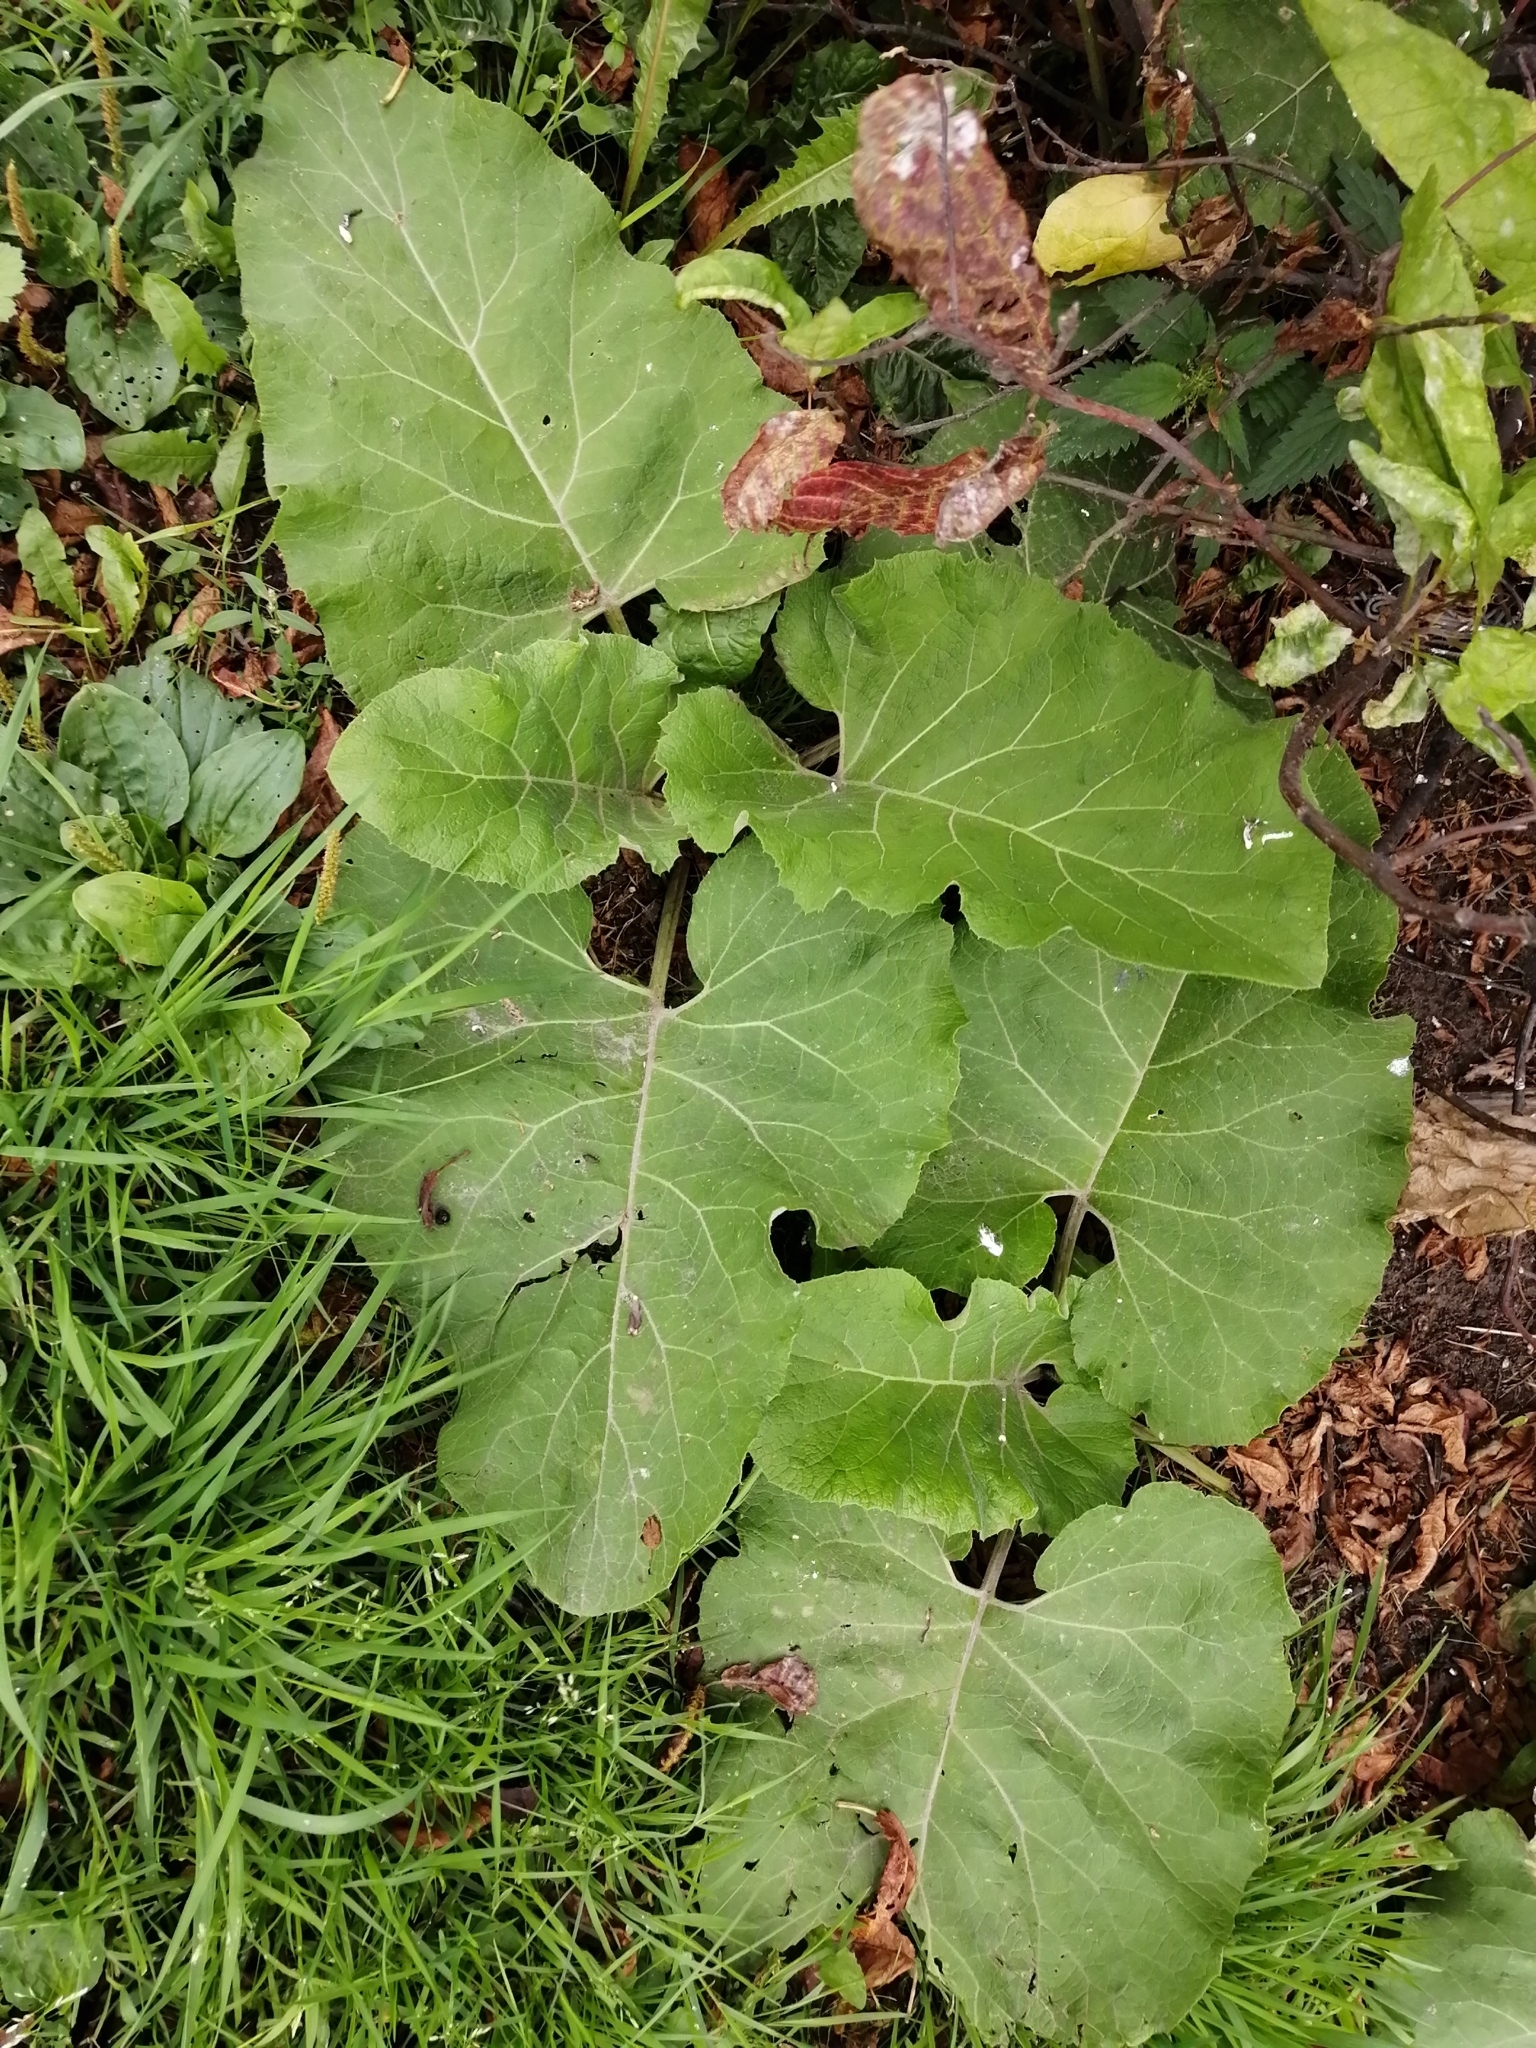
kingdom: Plantae
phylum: Tracheophyta
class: Magnoliopsida
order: Asterales
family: Asteraceae
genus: Arctium
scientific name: Arctium tomentosum
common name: Woolly burdock
